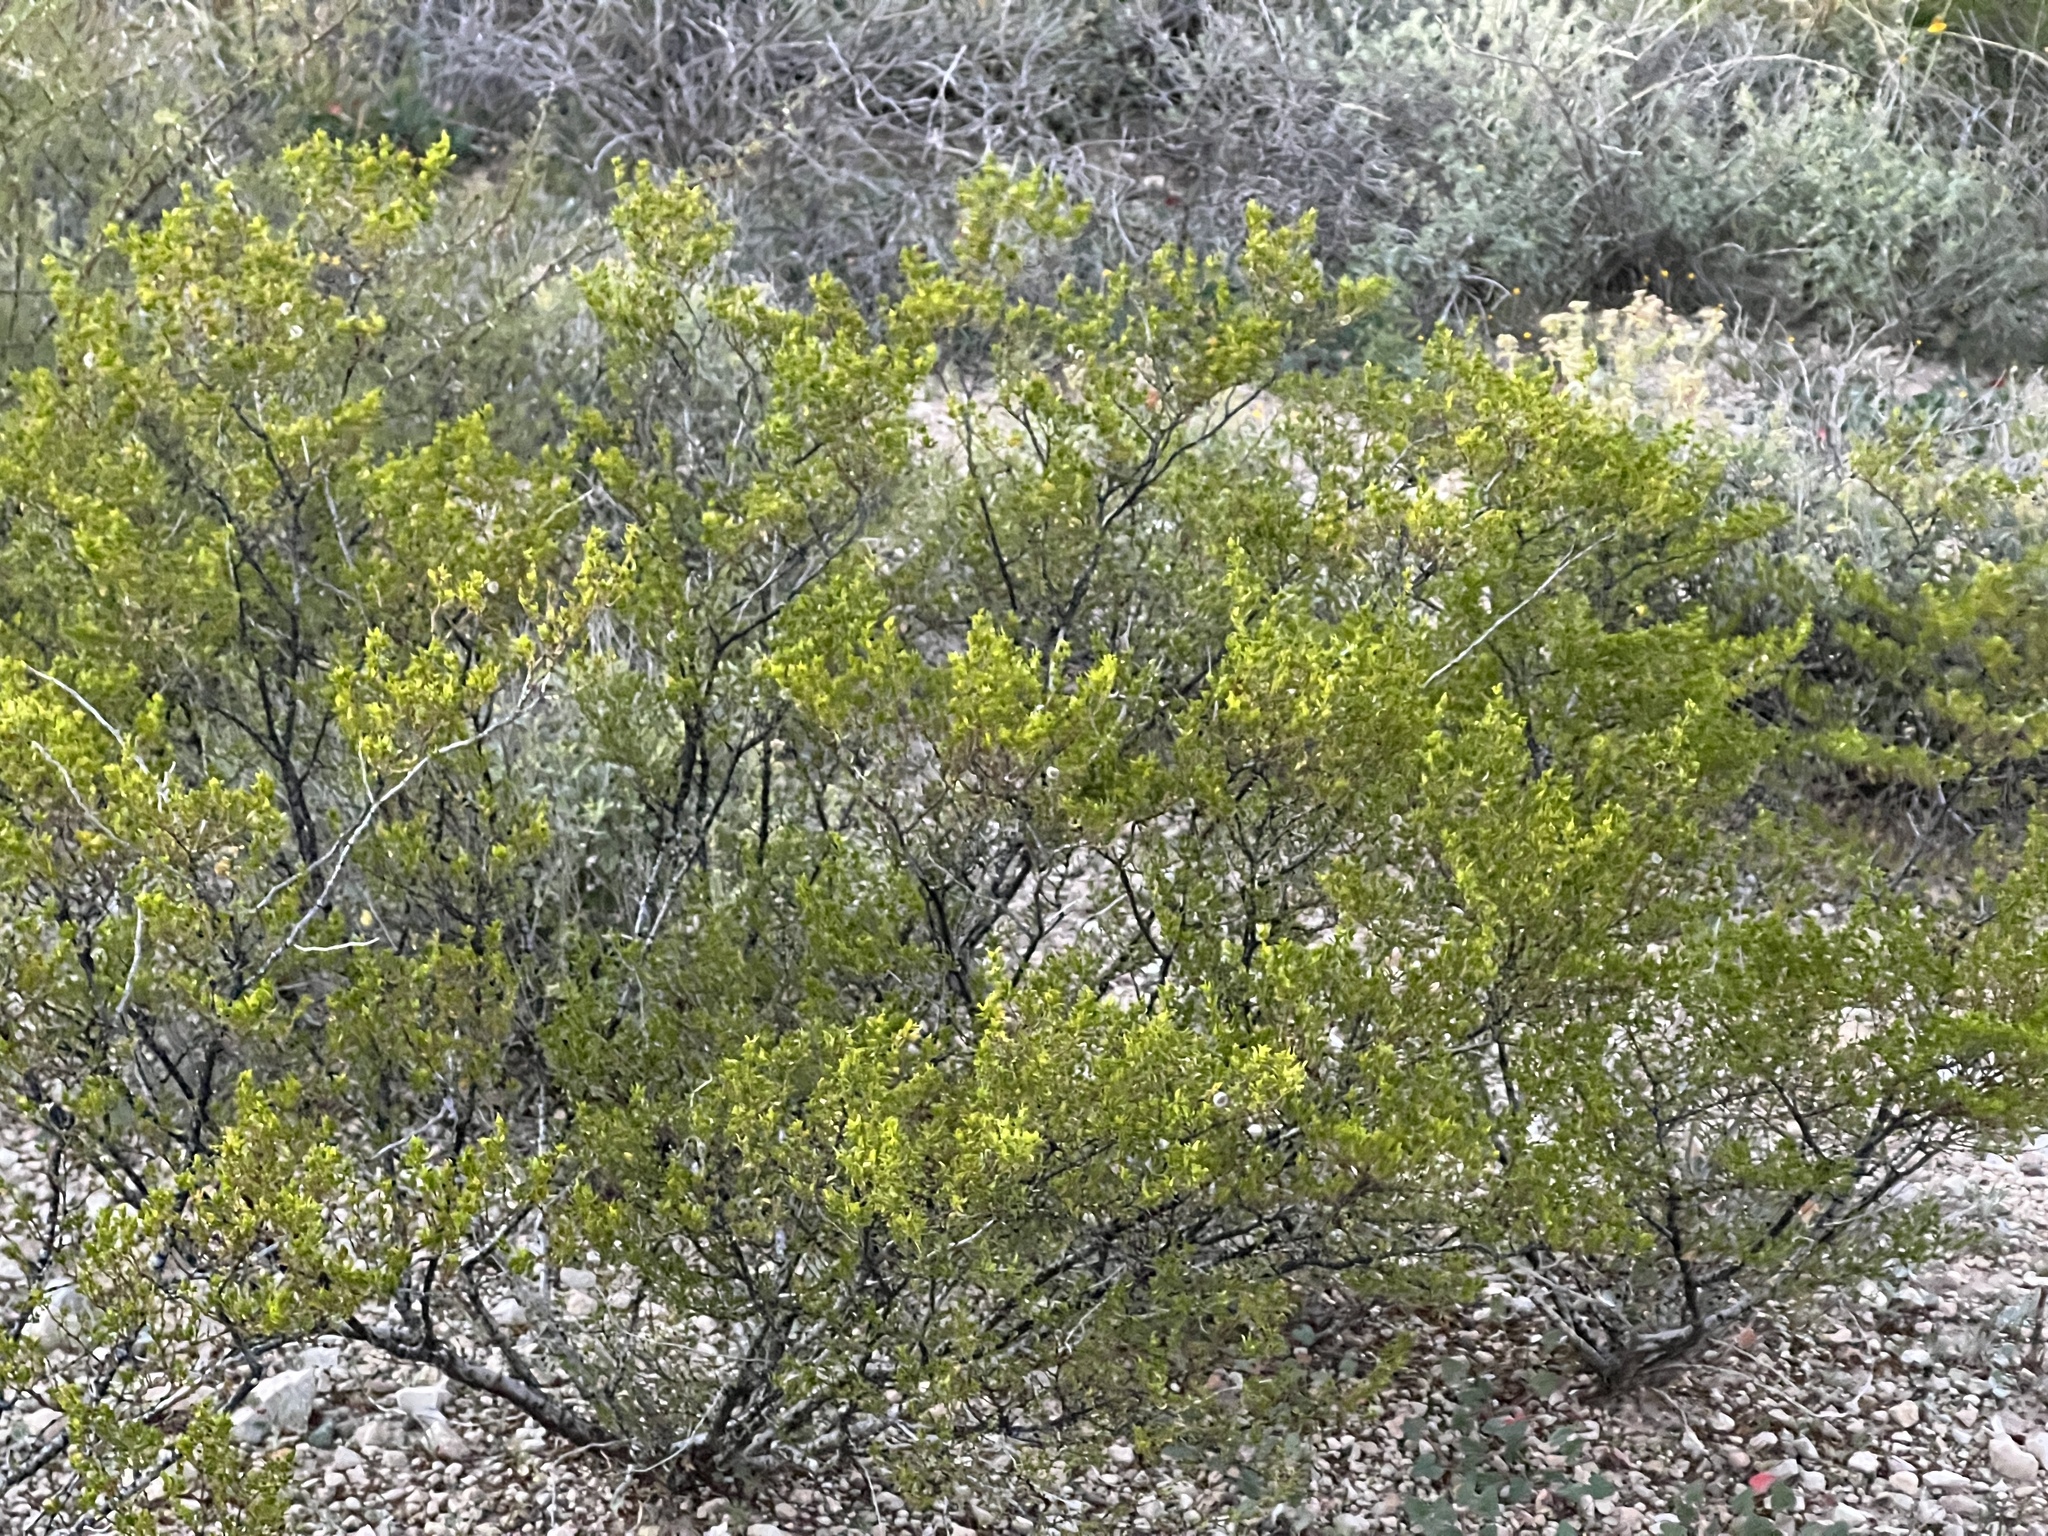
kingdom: Plantae
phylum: Tracheophyta
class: Magnoliopsida
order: Zygophyllales
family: Zygophyllaceae
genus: Larrea
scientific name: Larrea tridentata
